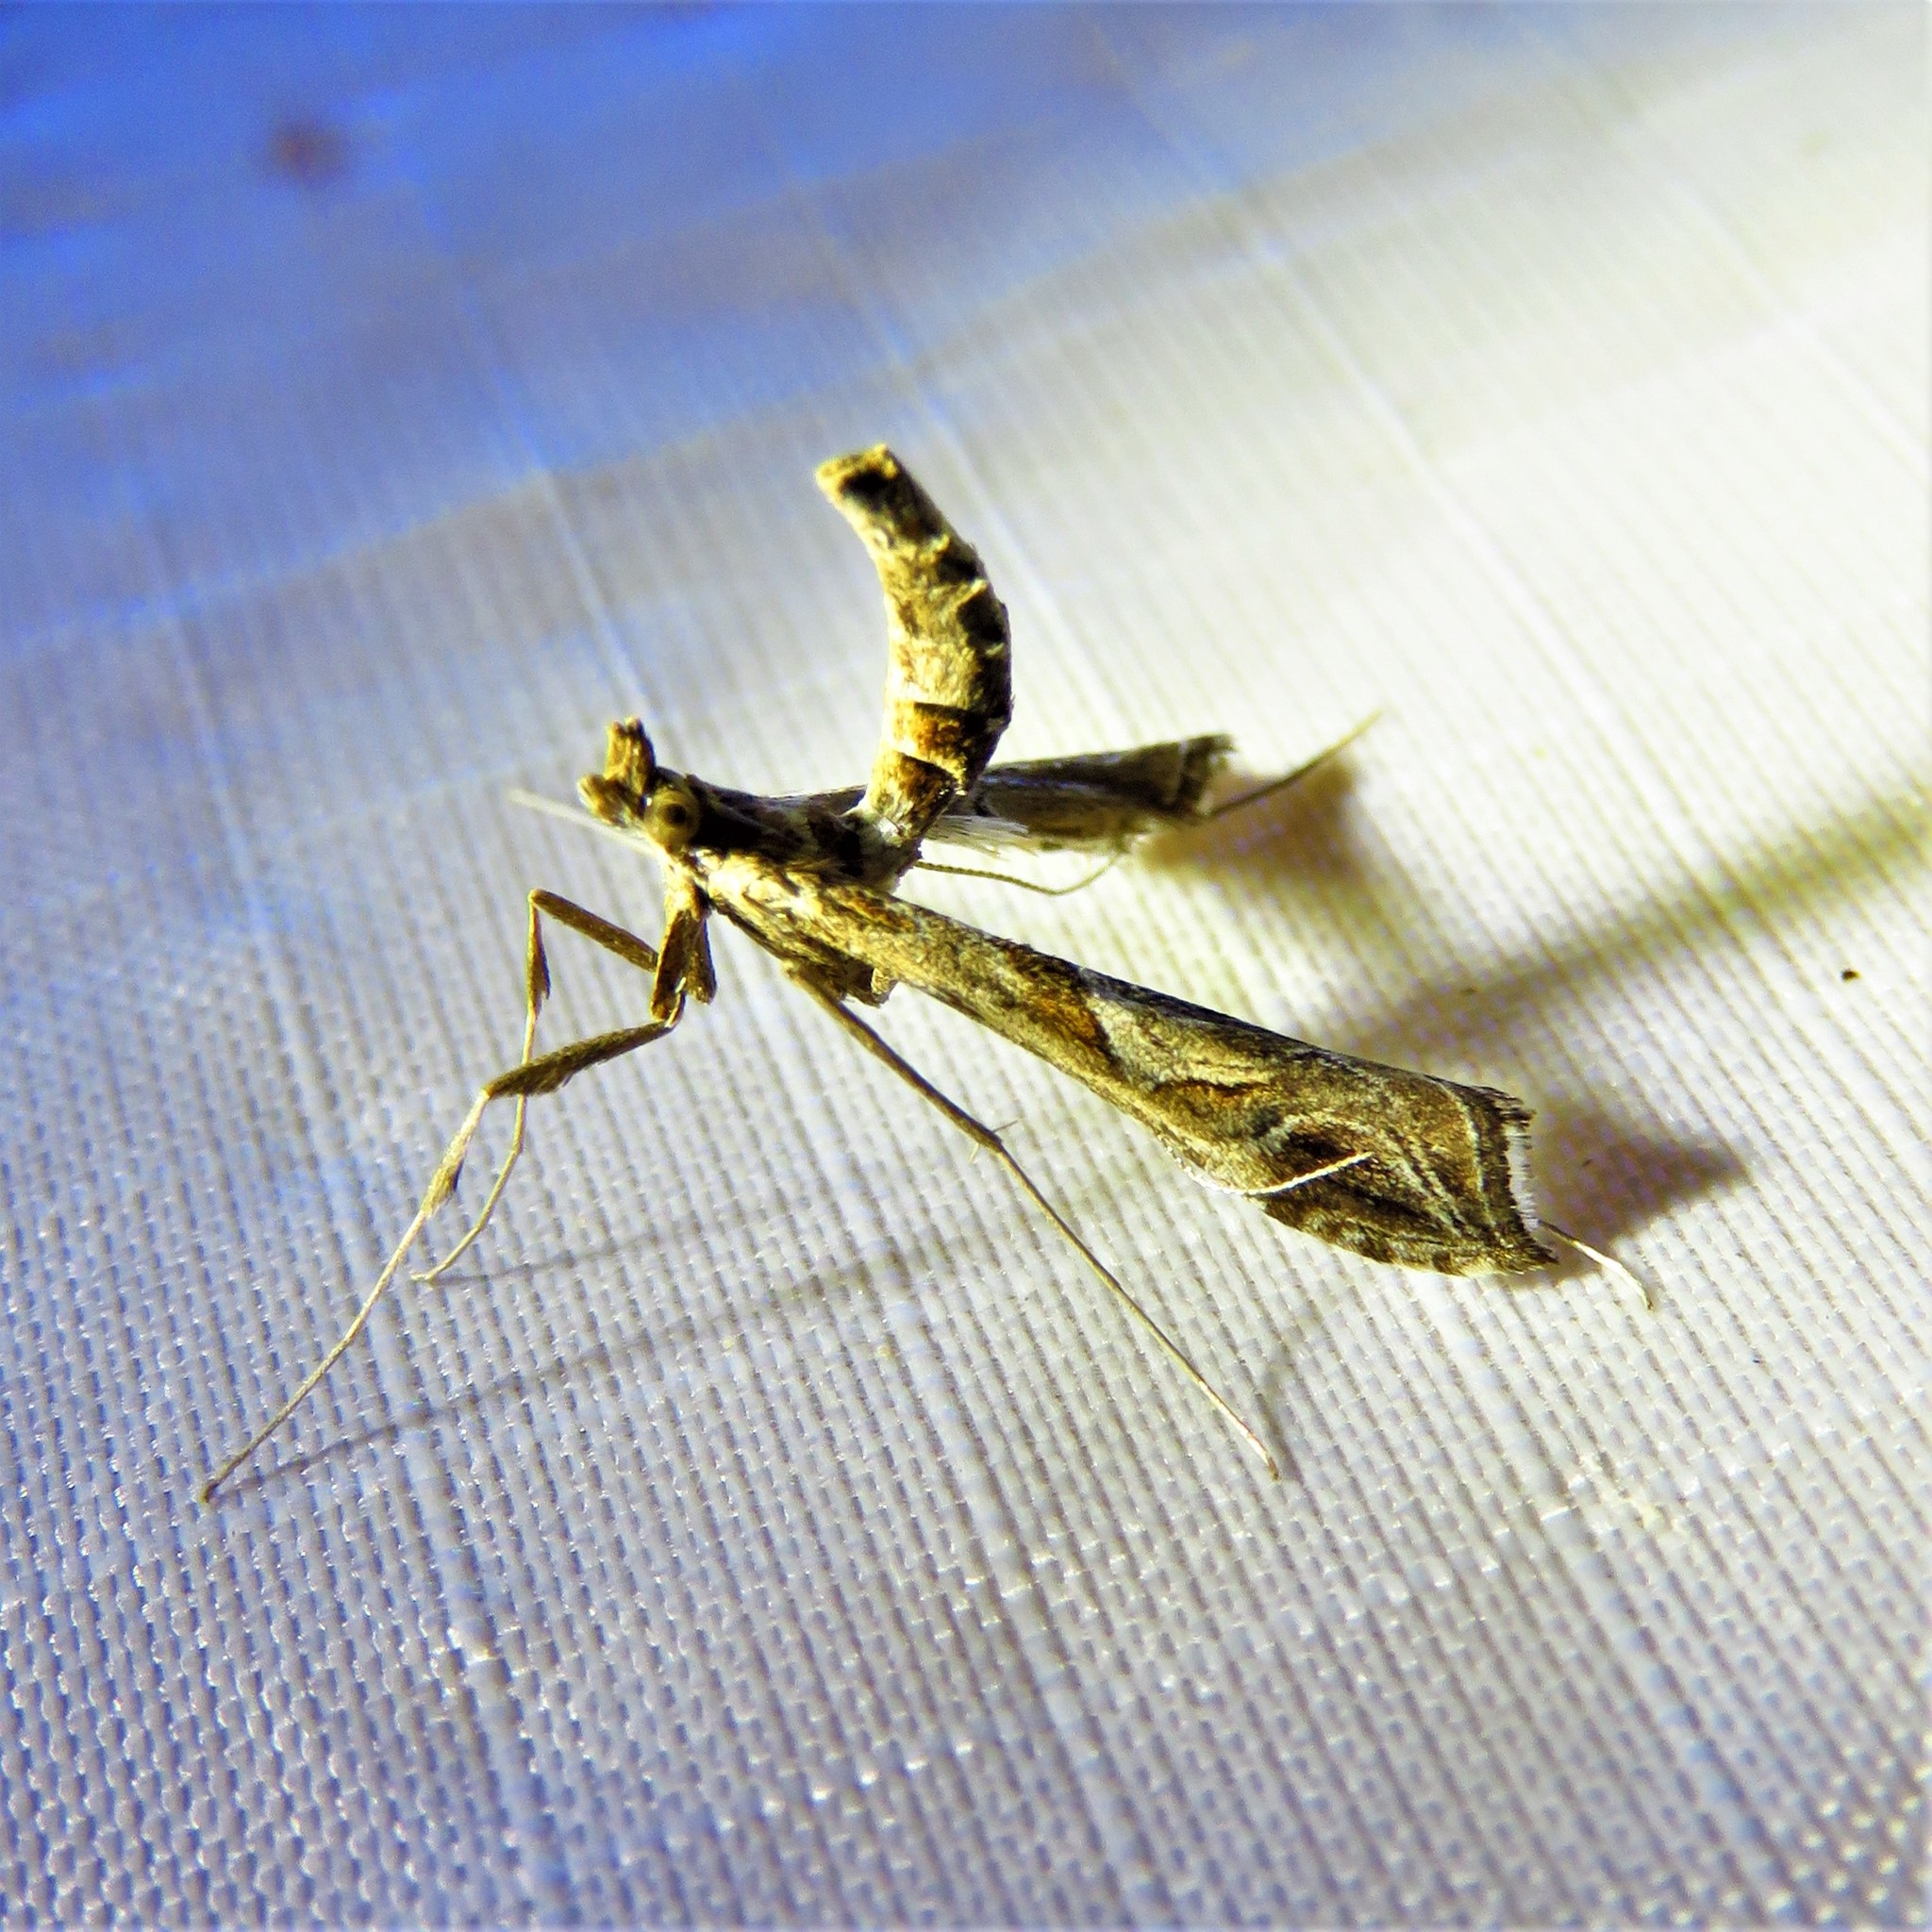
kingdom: Animalia
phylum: Arthropoda
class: Insecta
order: Lepidoptera
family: Crambidae
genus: Lineodes
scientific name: Lineodes interrupta
